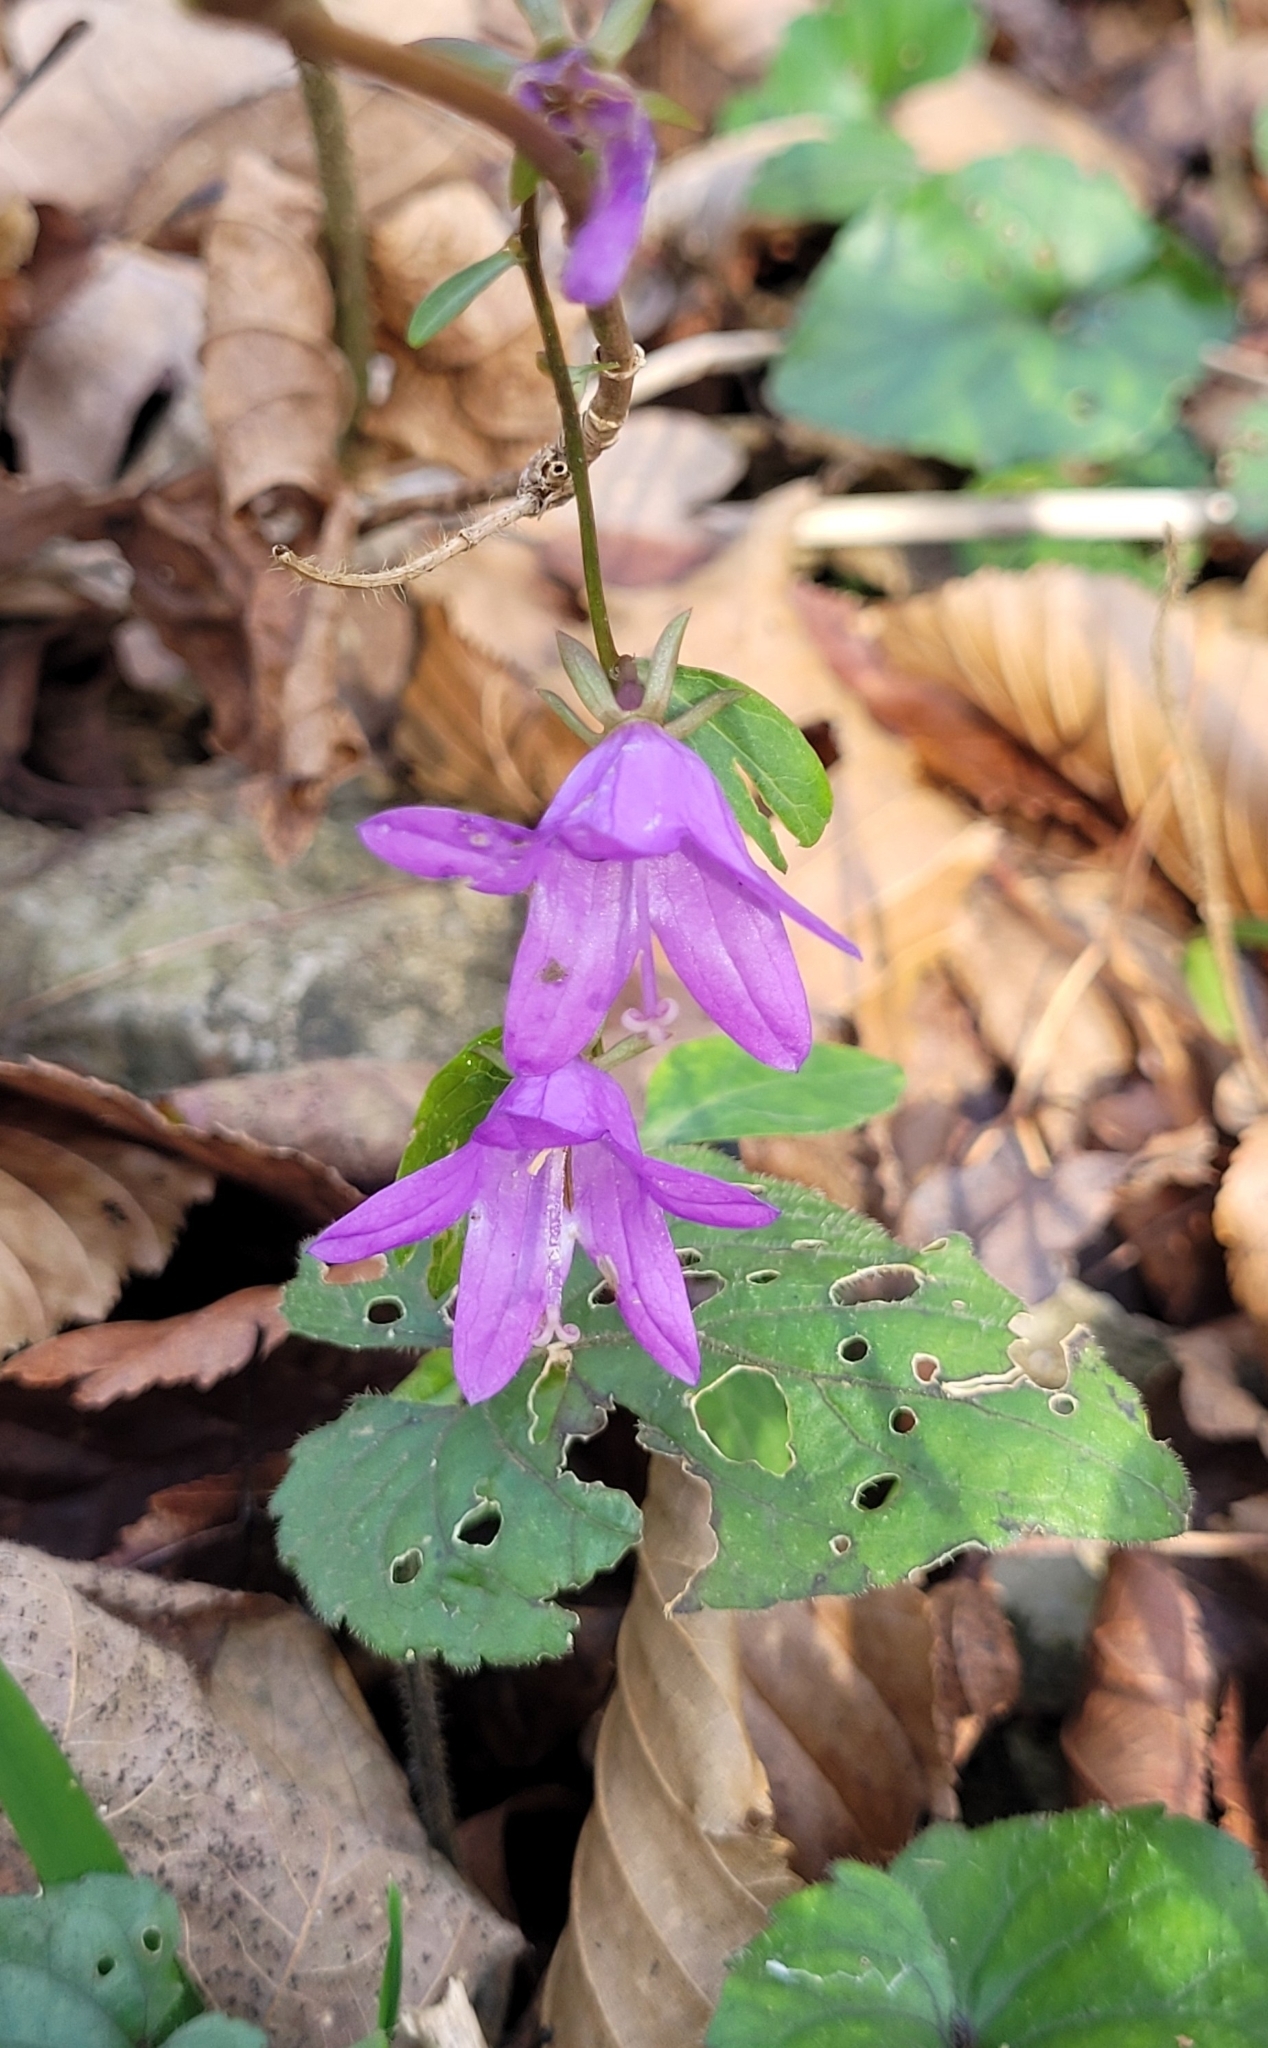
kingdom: Plantae
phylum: Tracheophyta
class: Magnoliopsida
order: Asterales
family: Campanulaceae
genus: Campanula
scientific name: Campanula rapunculoides
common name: Creeping bellflower
